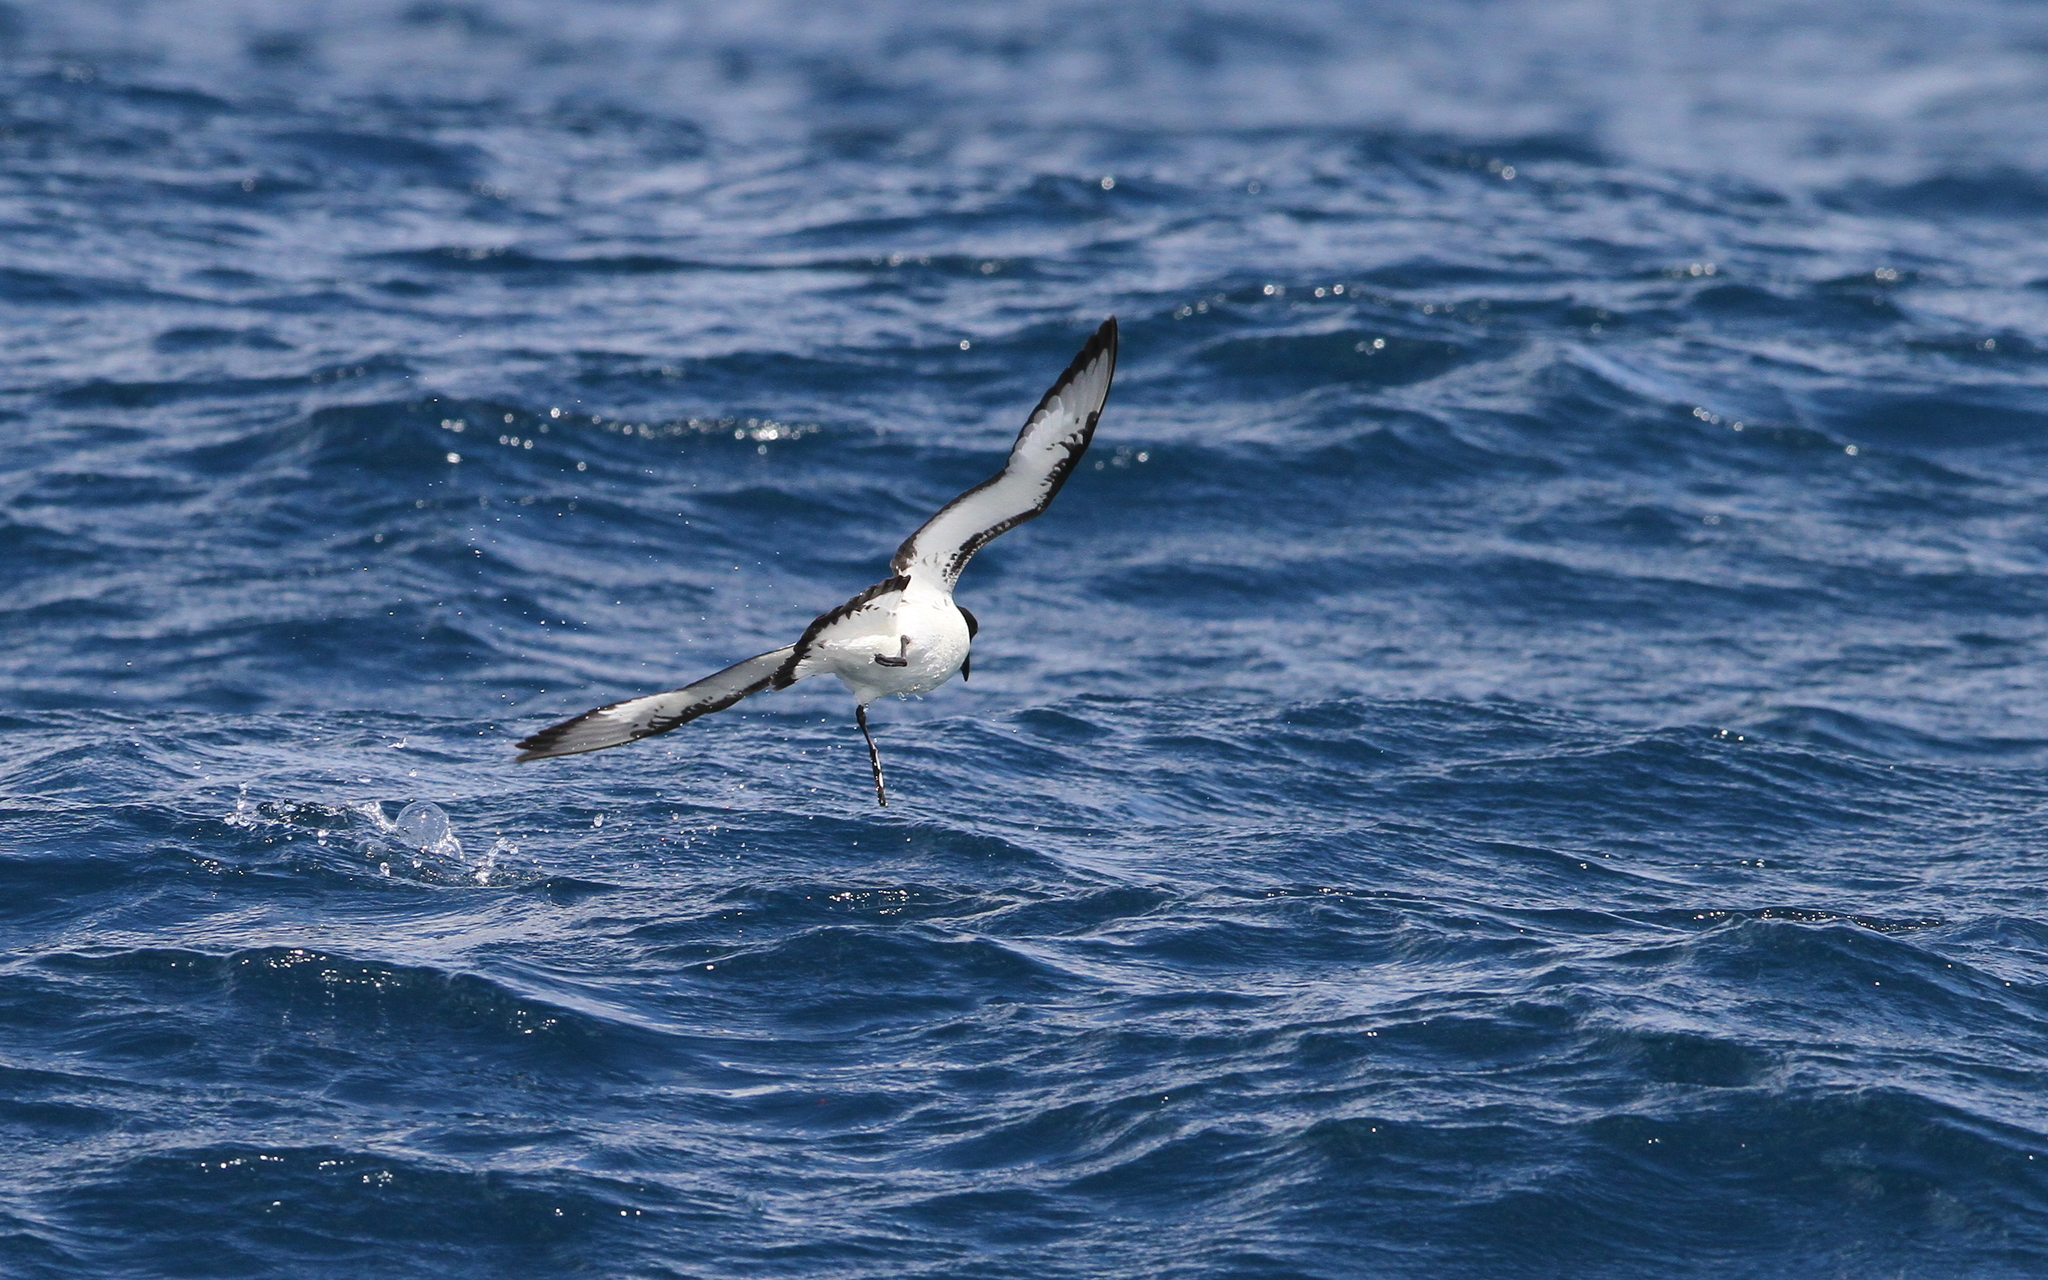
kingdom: Animalia
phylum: Chordata
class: Aves
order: Procellariiformes
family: Procellariidae
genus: Daption
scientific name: Daption capense
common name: Cape petrel
